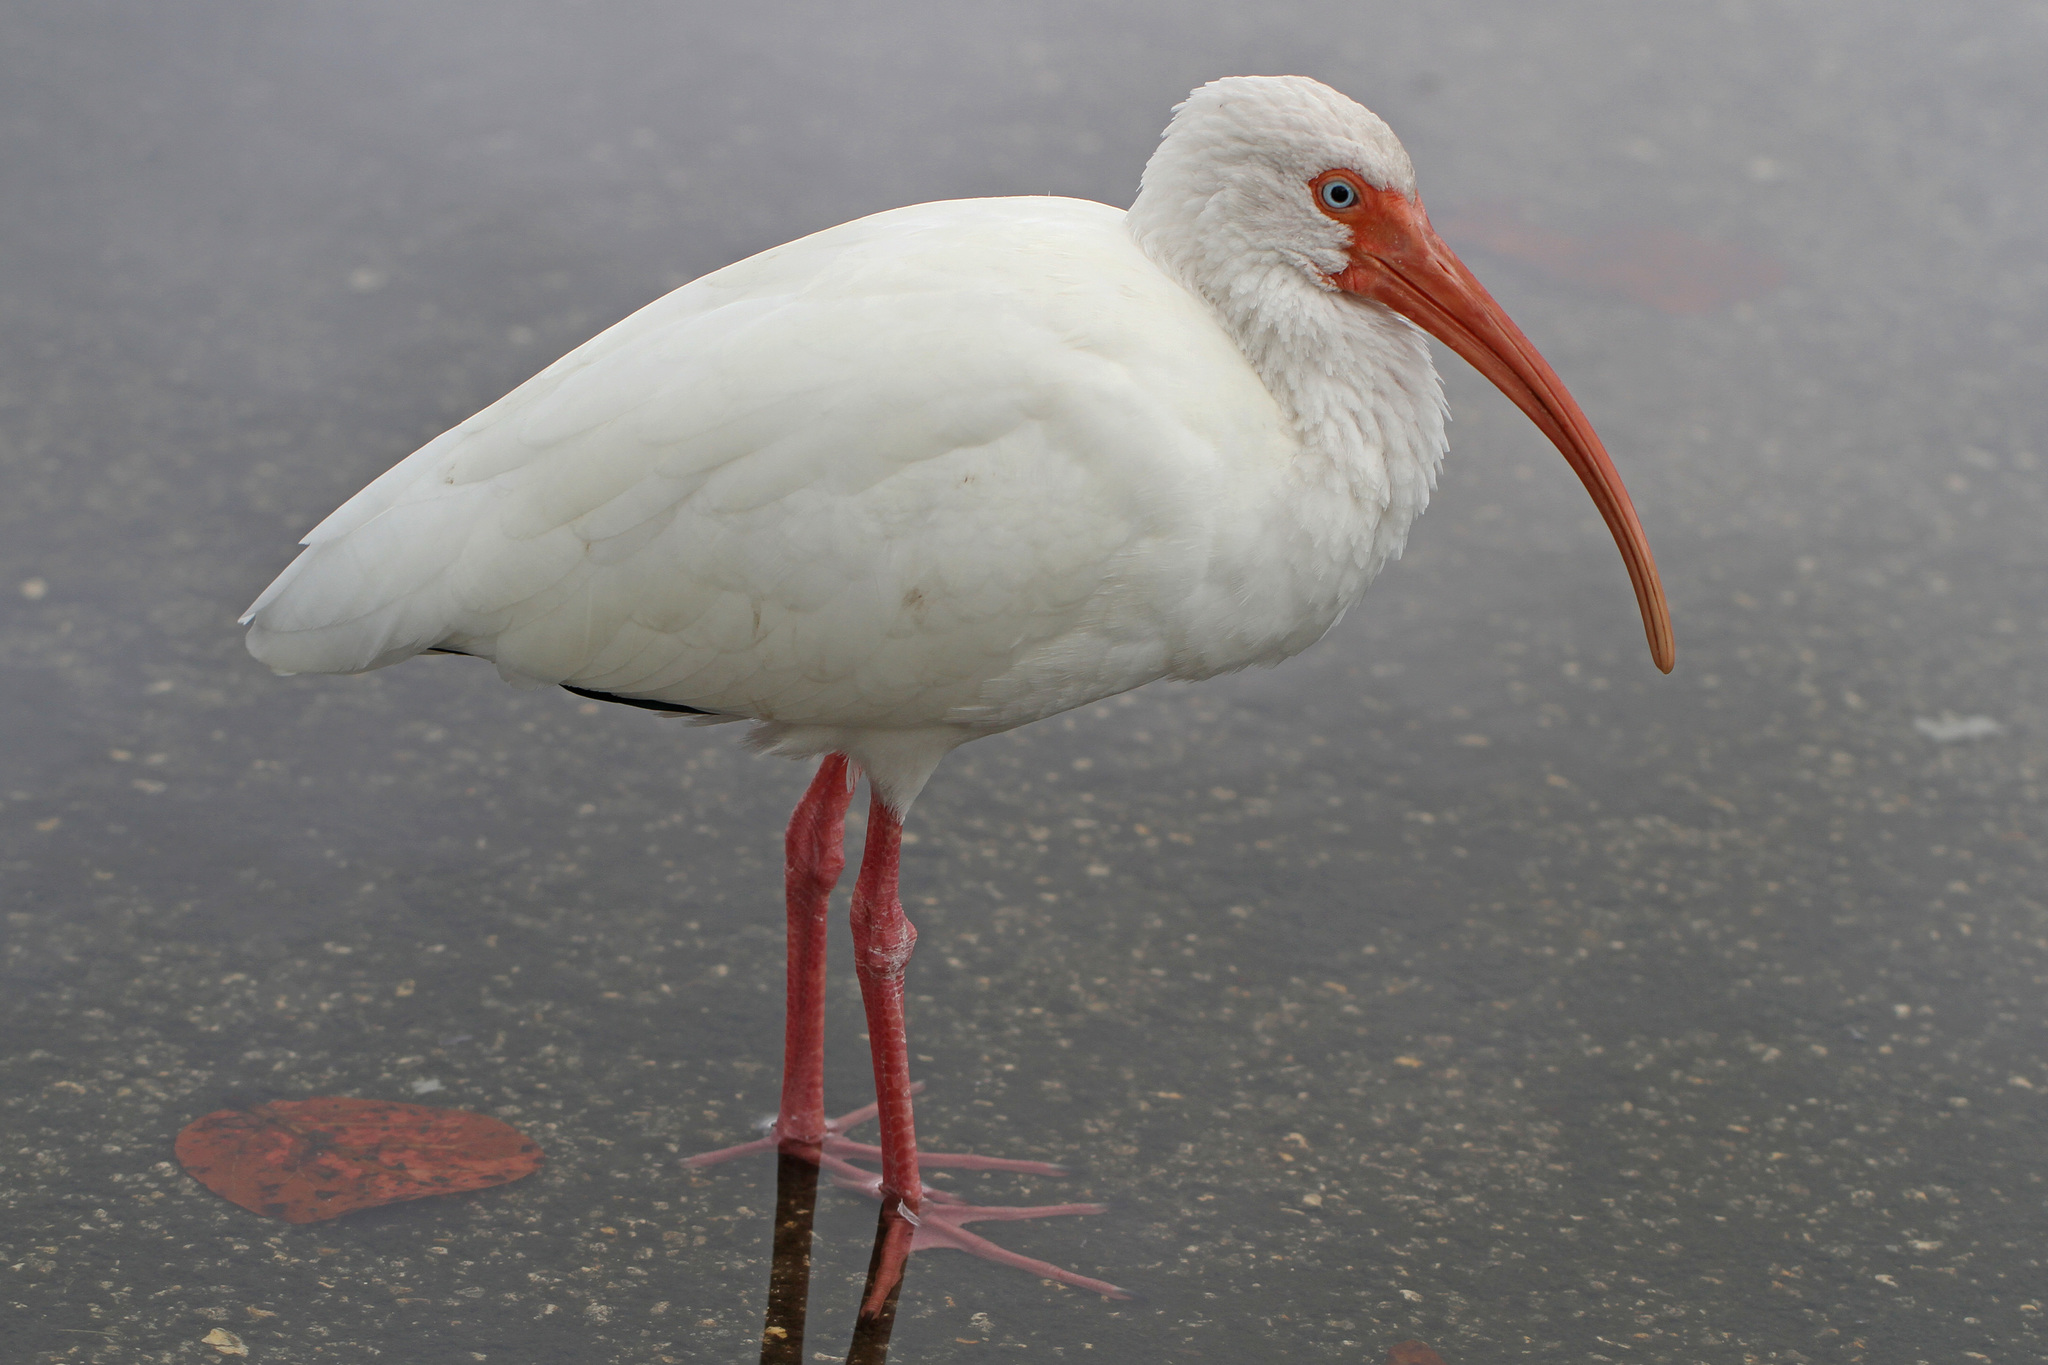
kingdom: Animalia
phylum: Chordata
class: Aves
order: Pelecaniformes
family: Threskiornithidae
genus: Eudocimus
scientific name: Eudocimus albus
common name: White ibis
